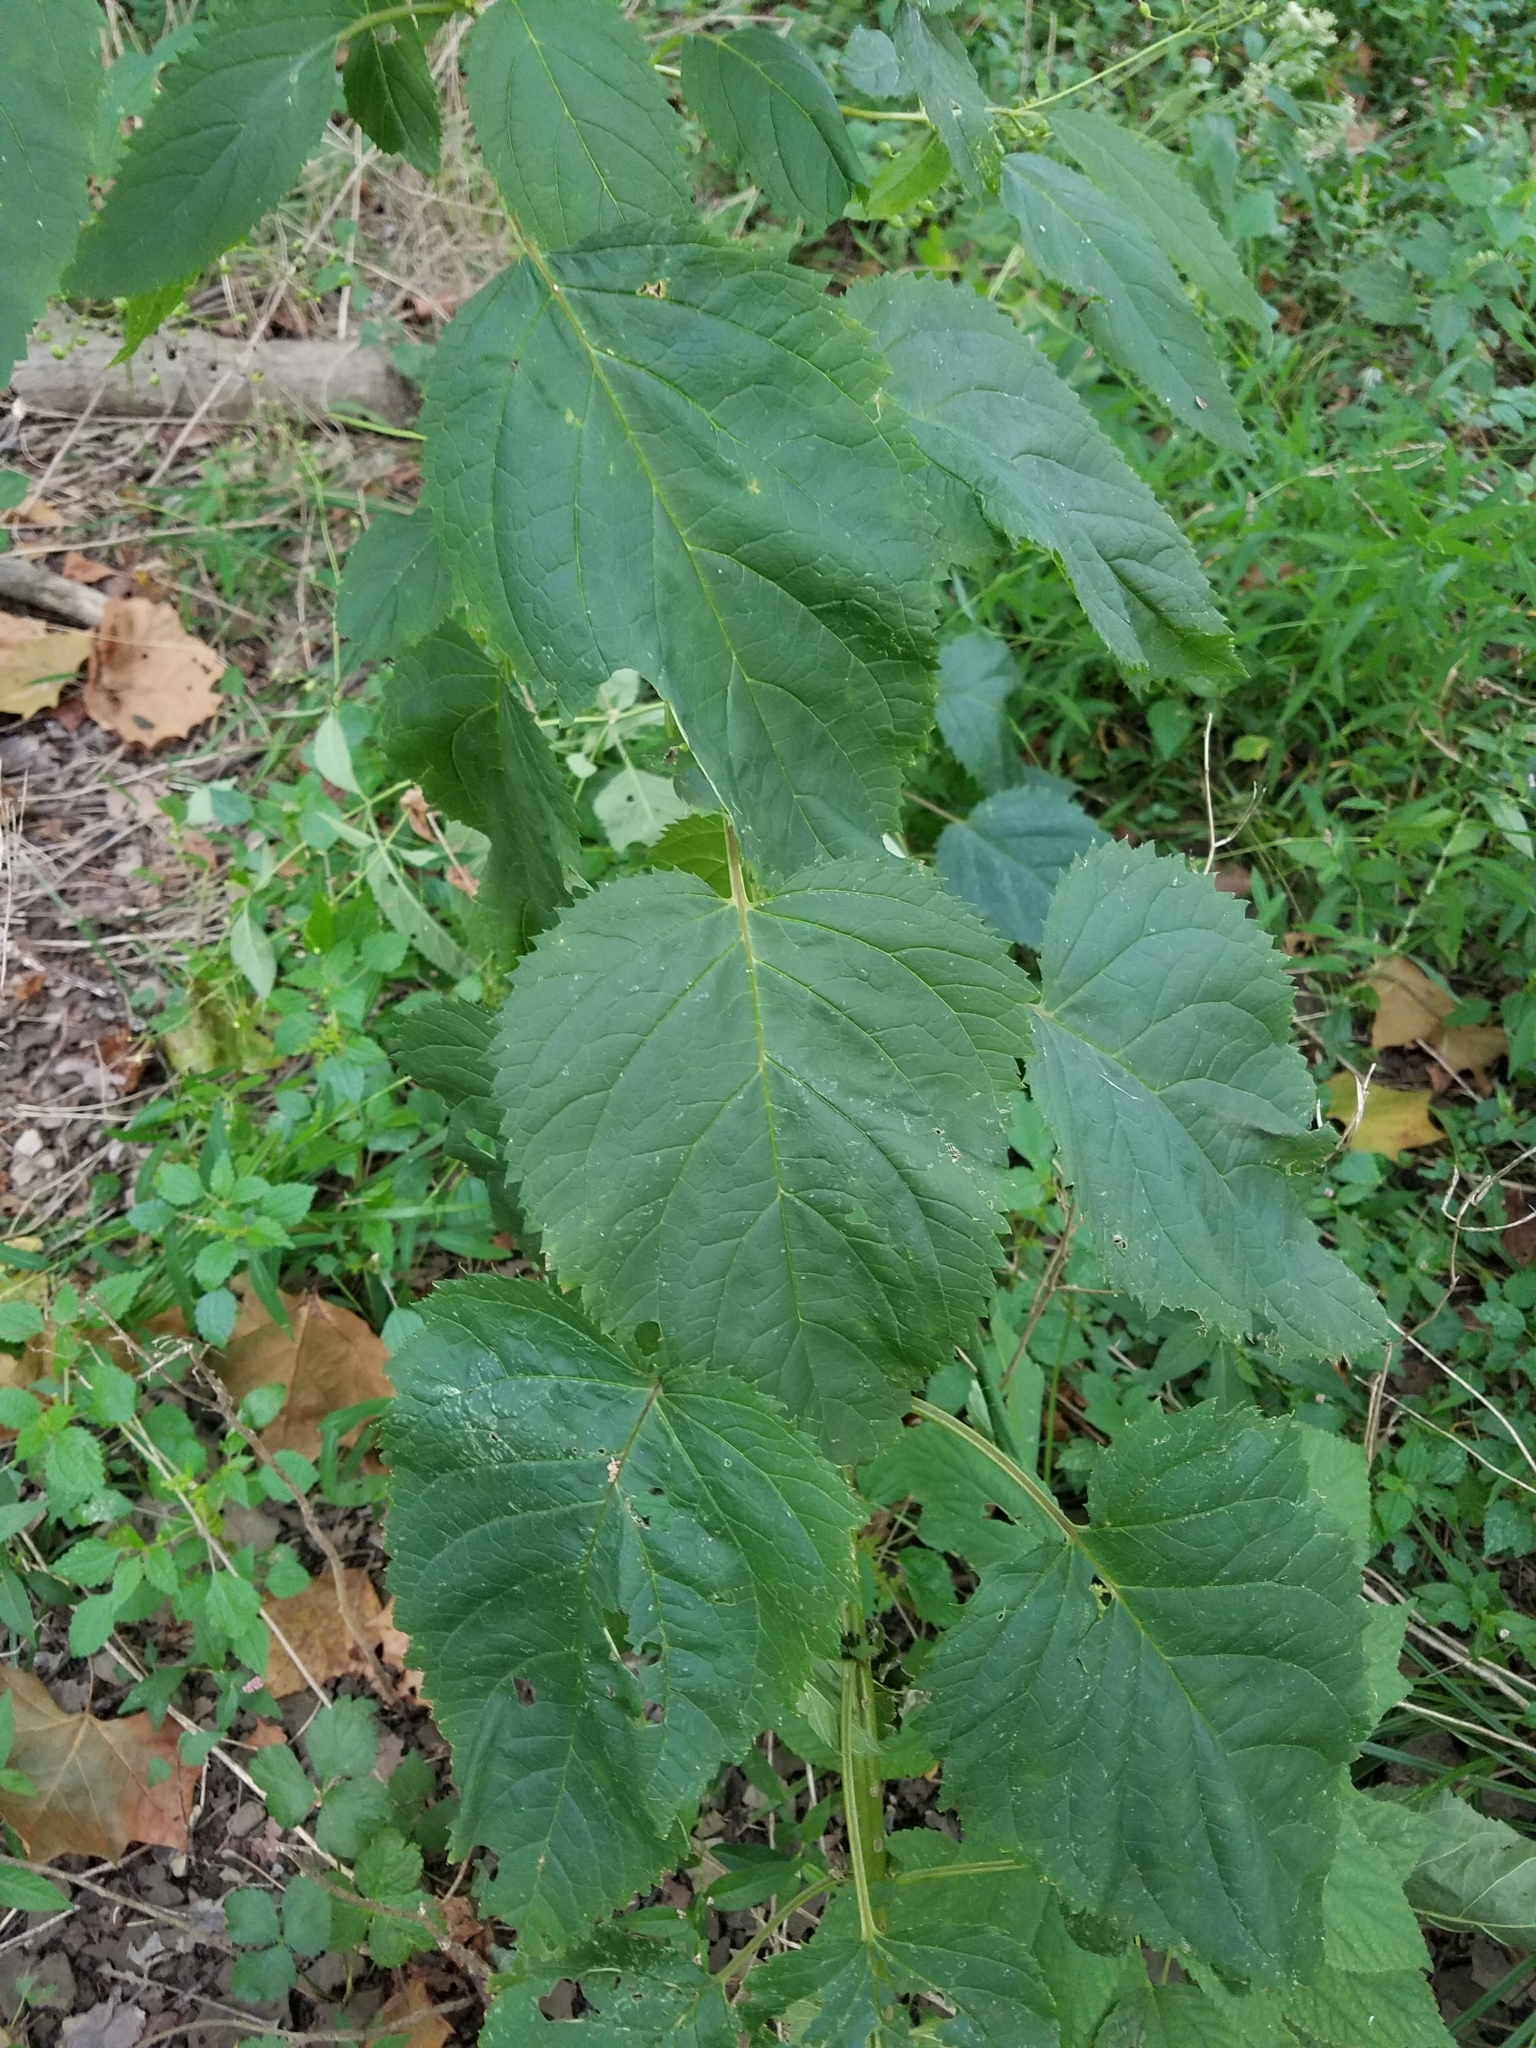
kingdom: Plantae
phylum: Tracheophyta
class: Magnoliopsida
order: Lamiales
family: Scrophulariaceae
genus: Scrophularia
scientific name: Scrophularia marilandica
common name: Eastern figwort
